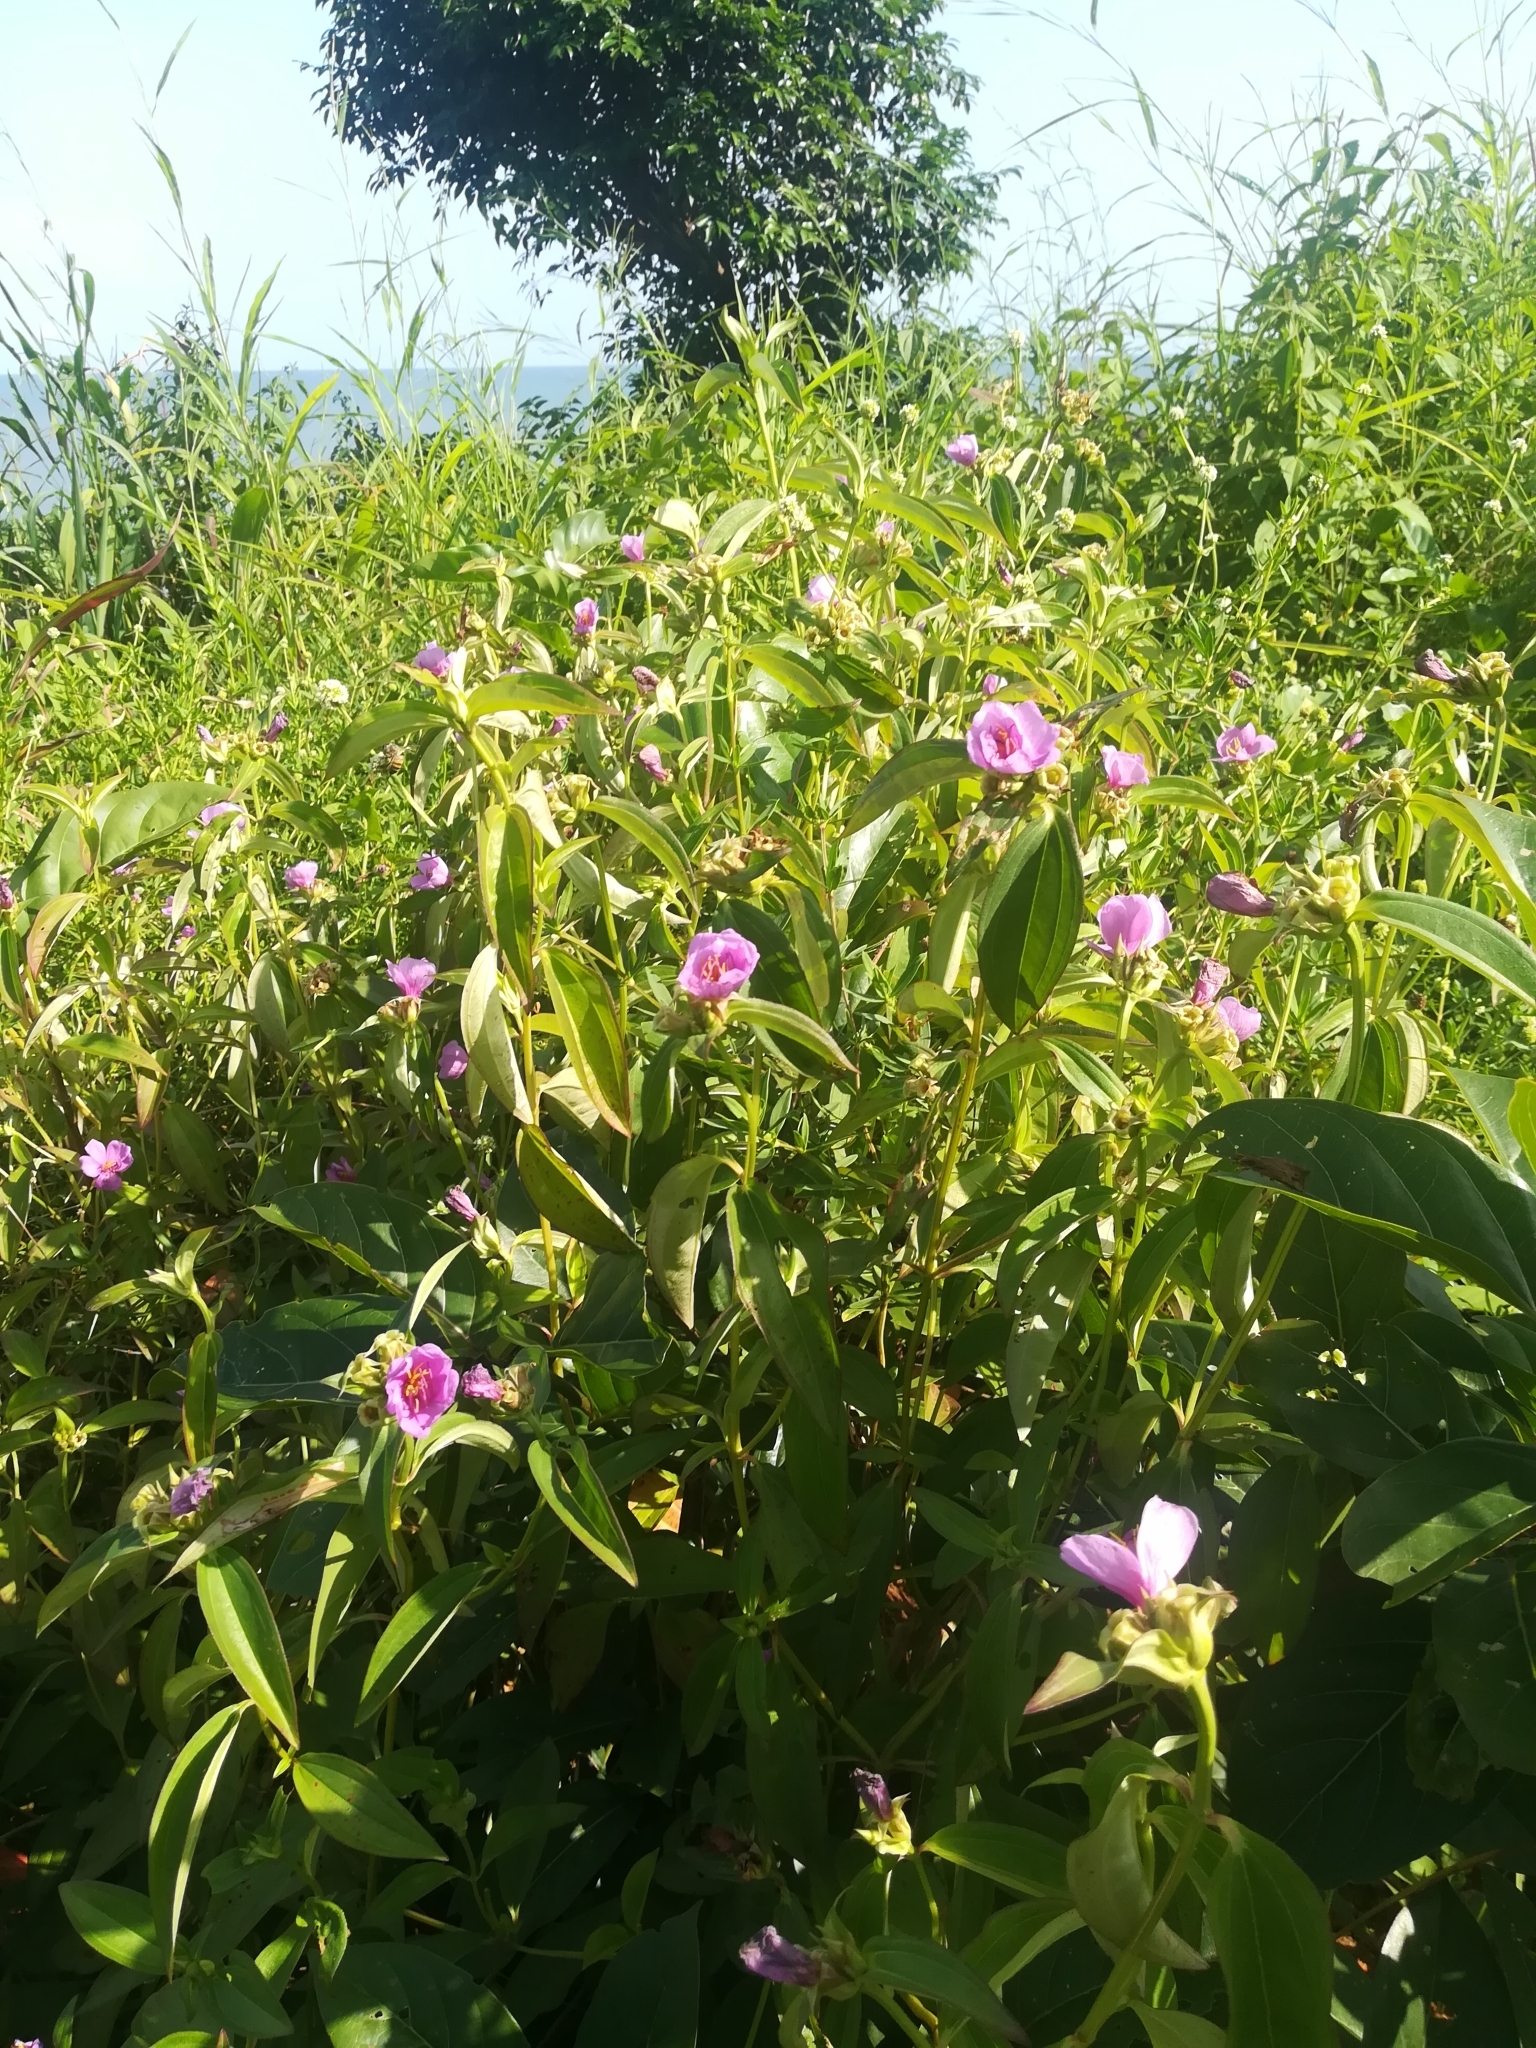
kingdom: Plantae
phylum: Tracheophyta
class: Magnoliopsida
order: Myrtales
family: Melastomataceae
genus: Melastomastrum
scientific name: Melastomastrum capitatum
